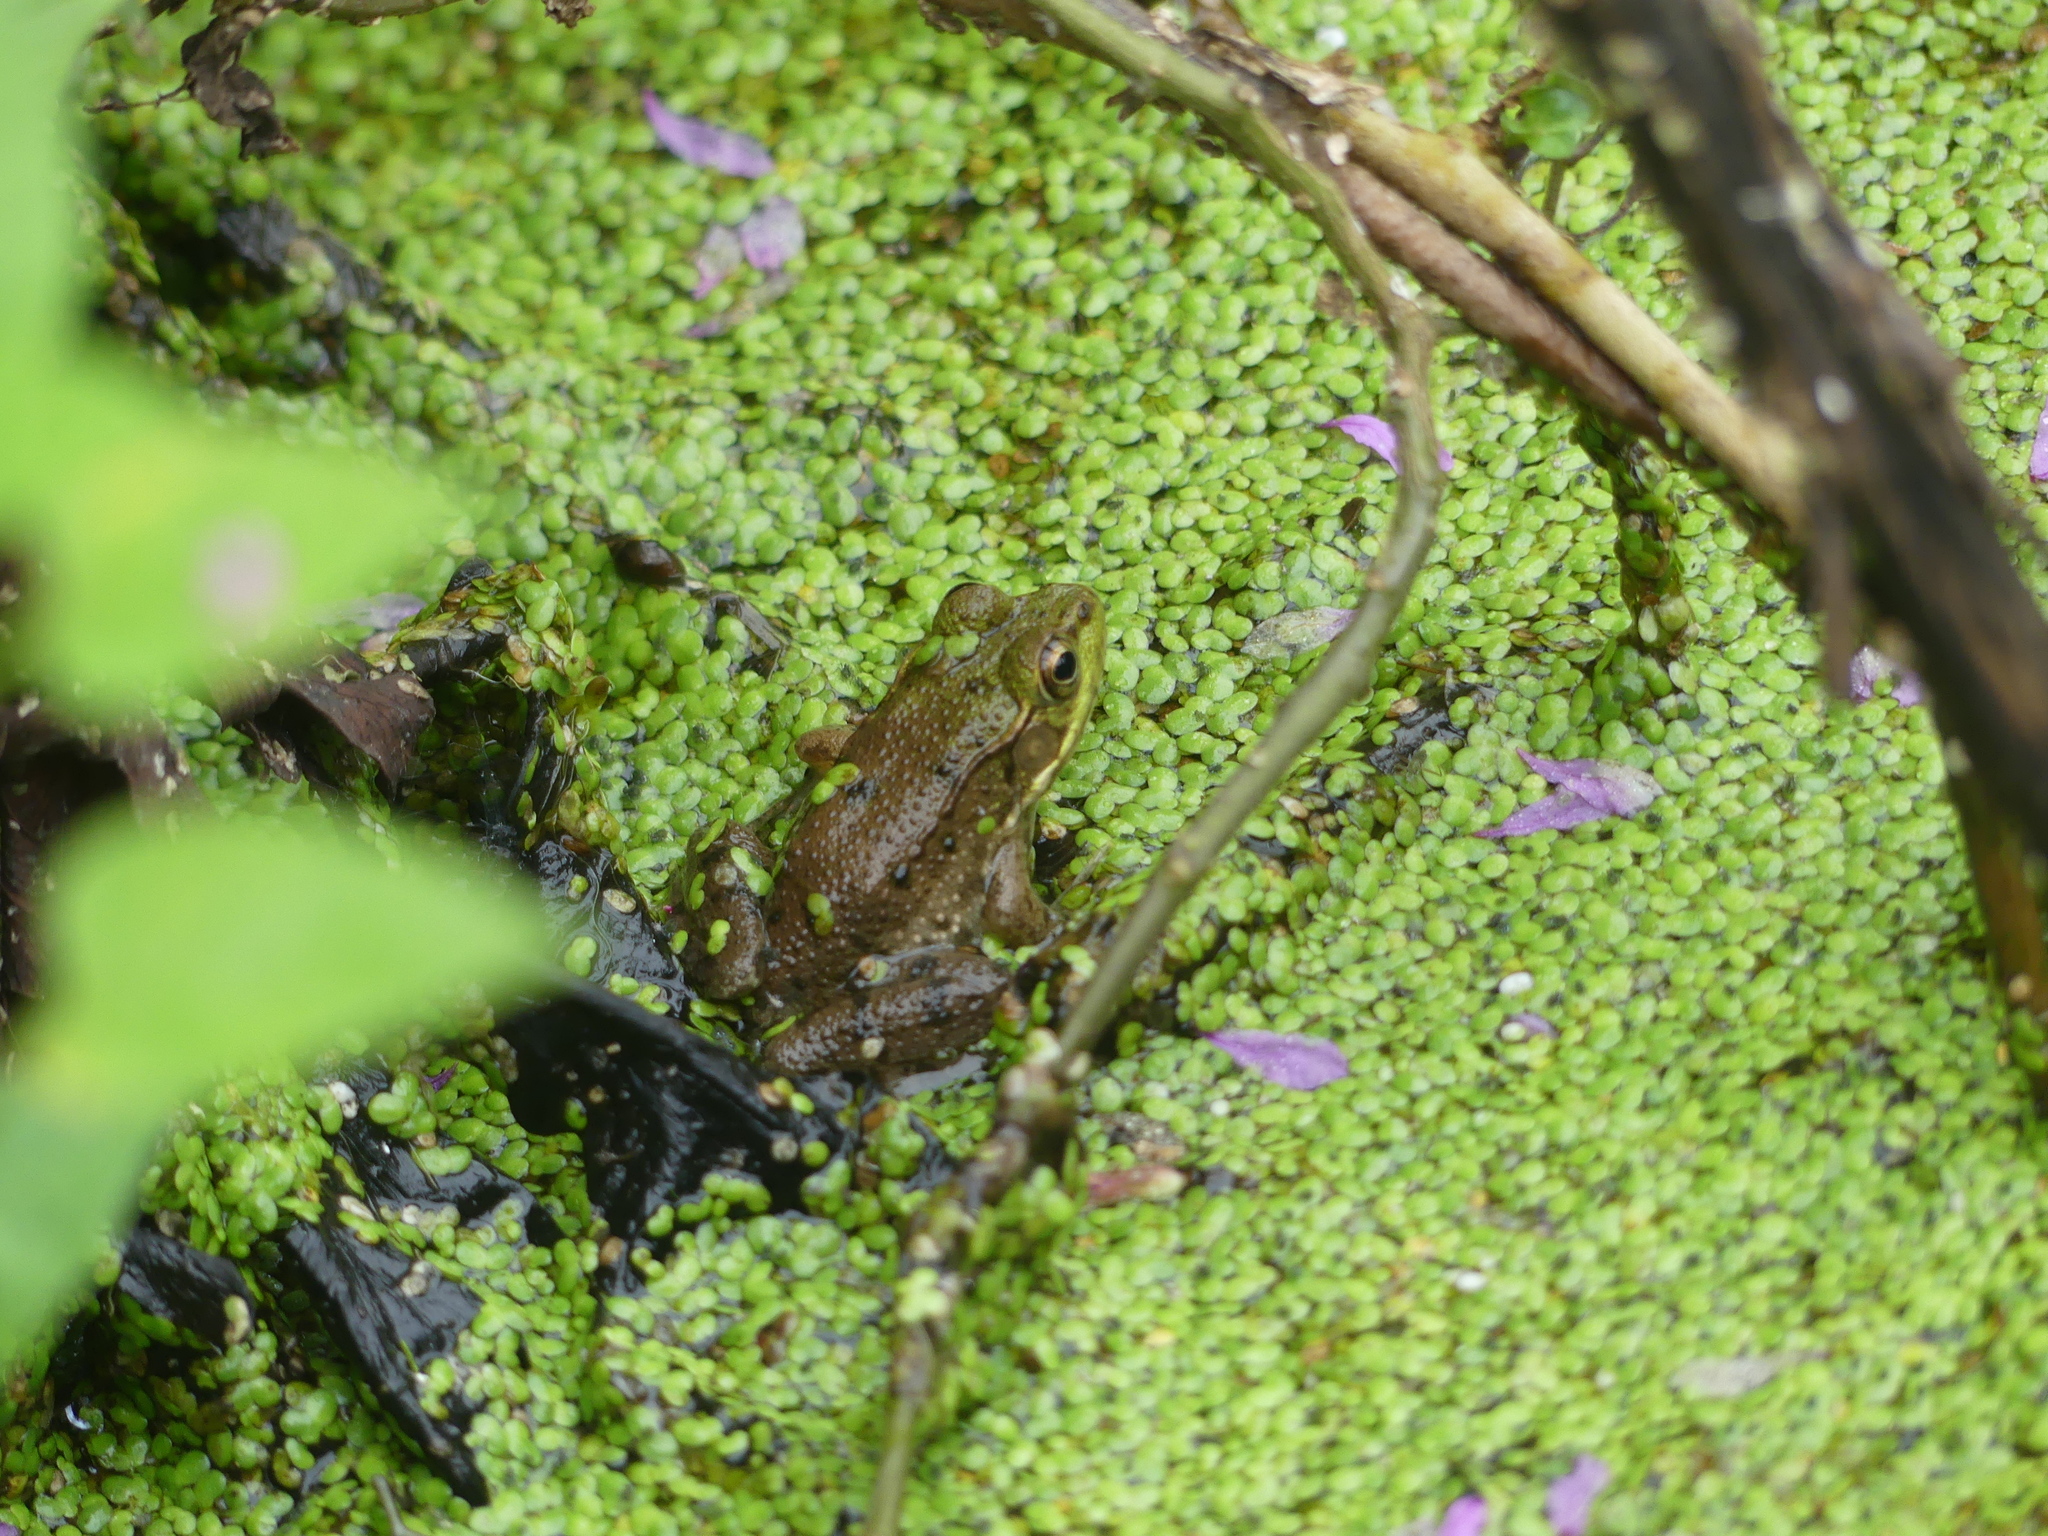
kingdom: Animalia
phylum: Chordata
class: Amphibia
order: Anura
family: Ranidae
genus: Lithobates
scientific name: Lithobates clamitans
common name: Green frog
